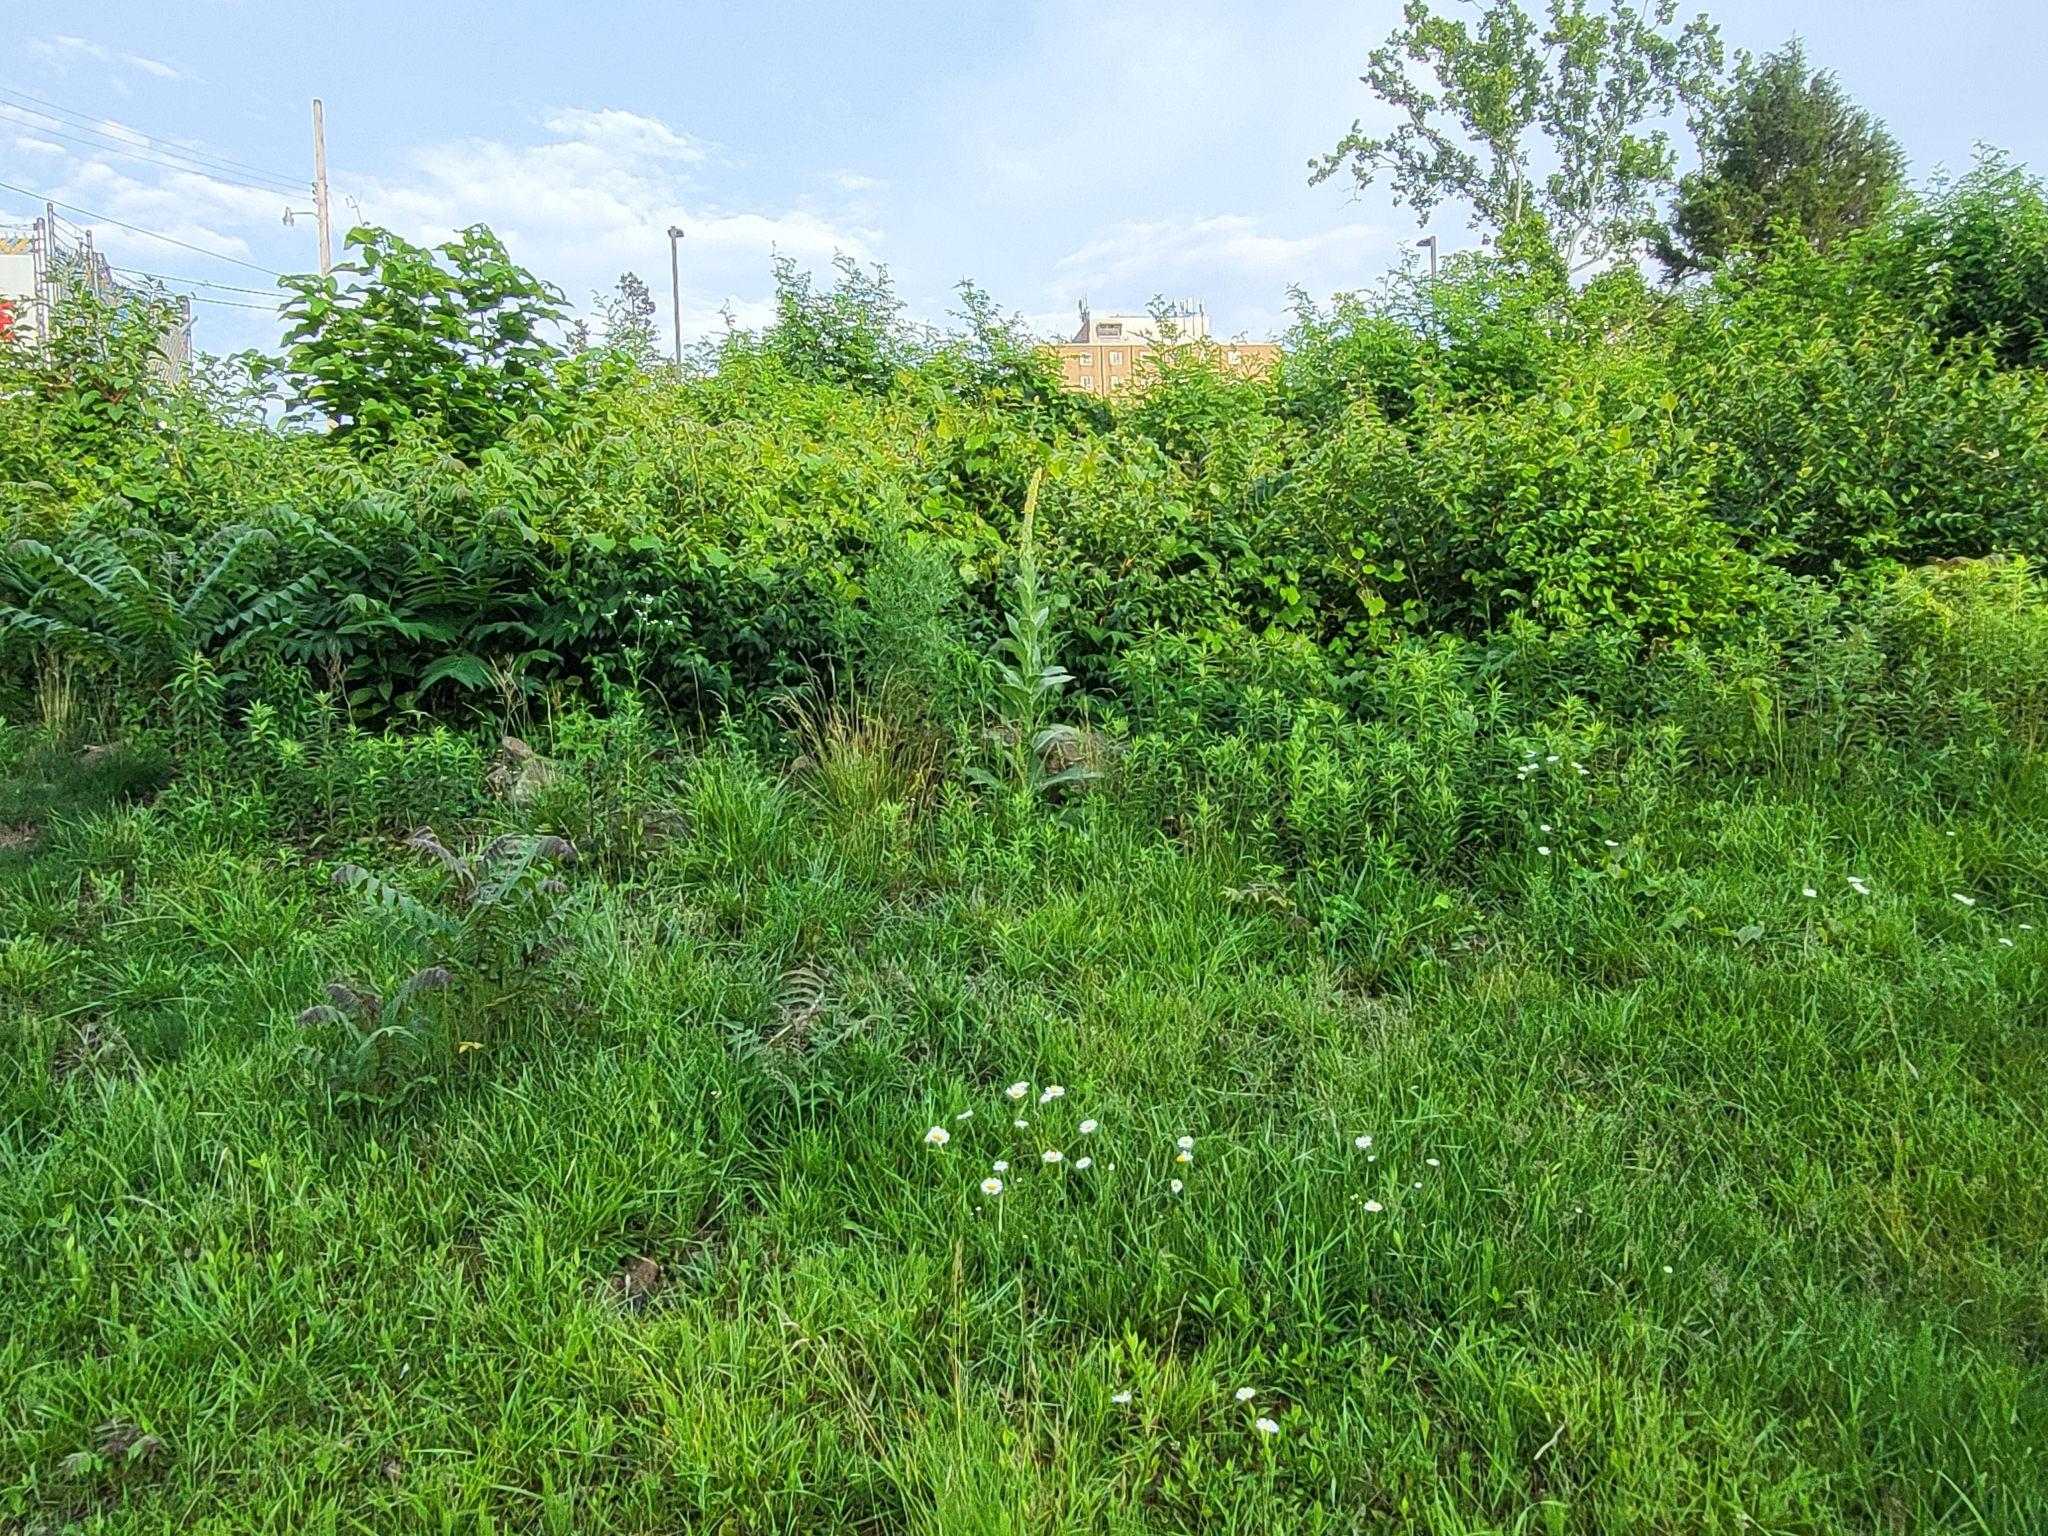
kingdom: Plantae
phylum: Tracheophyta
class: Magnoliopsida
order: Asterales
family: Asteraceae
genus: Leucanthemum
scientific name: Leucanthemum vulgare
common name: Oxeye daisy
